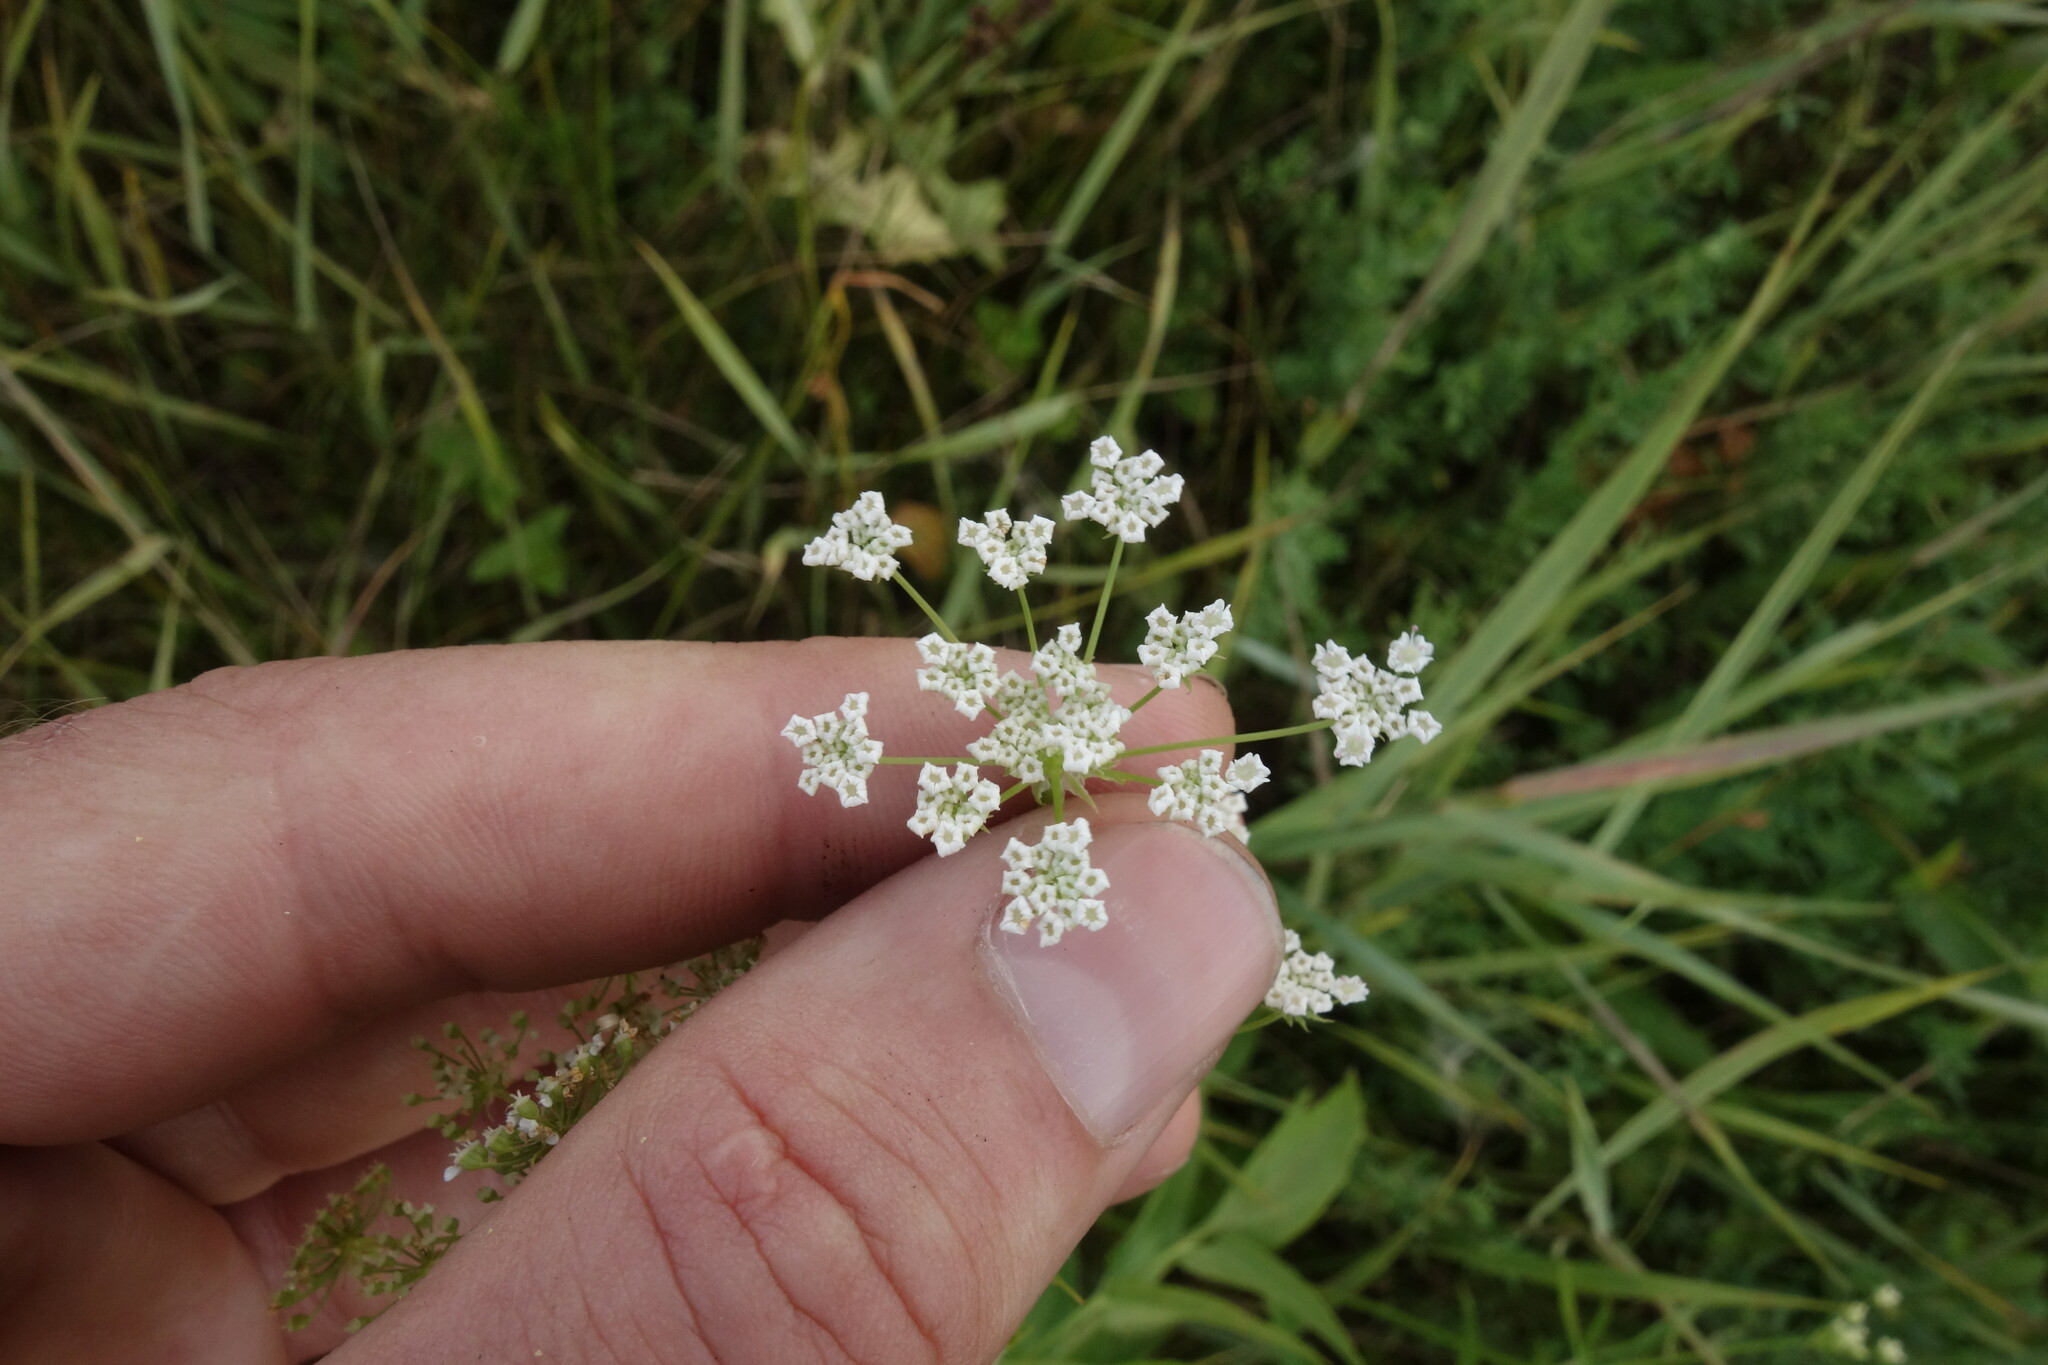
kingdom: Plantae
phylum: Tracheophyta
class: Magnoliopsida
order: Apiales
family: Apiaceae
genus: Sium
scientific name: Sium sisarum
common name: Skirret
